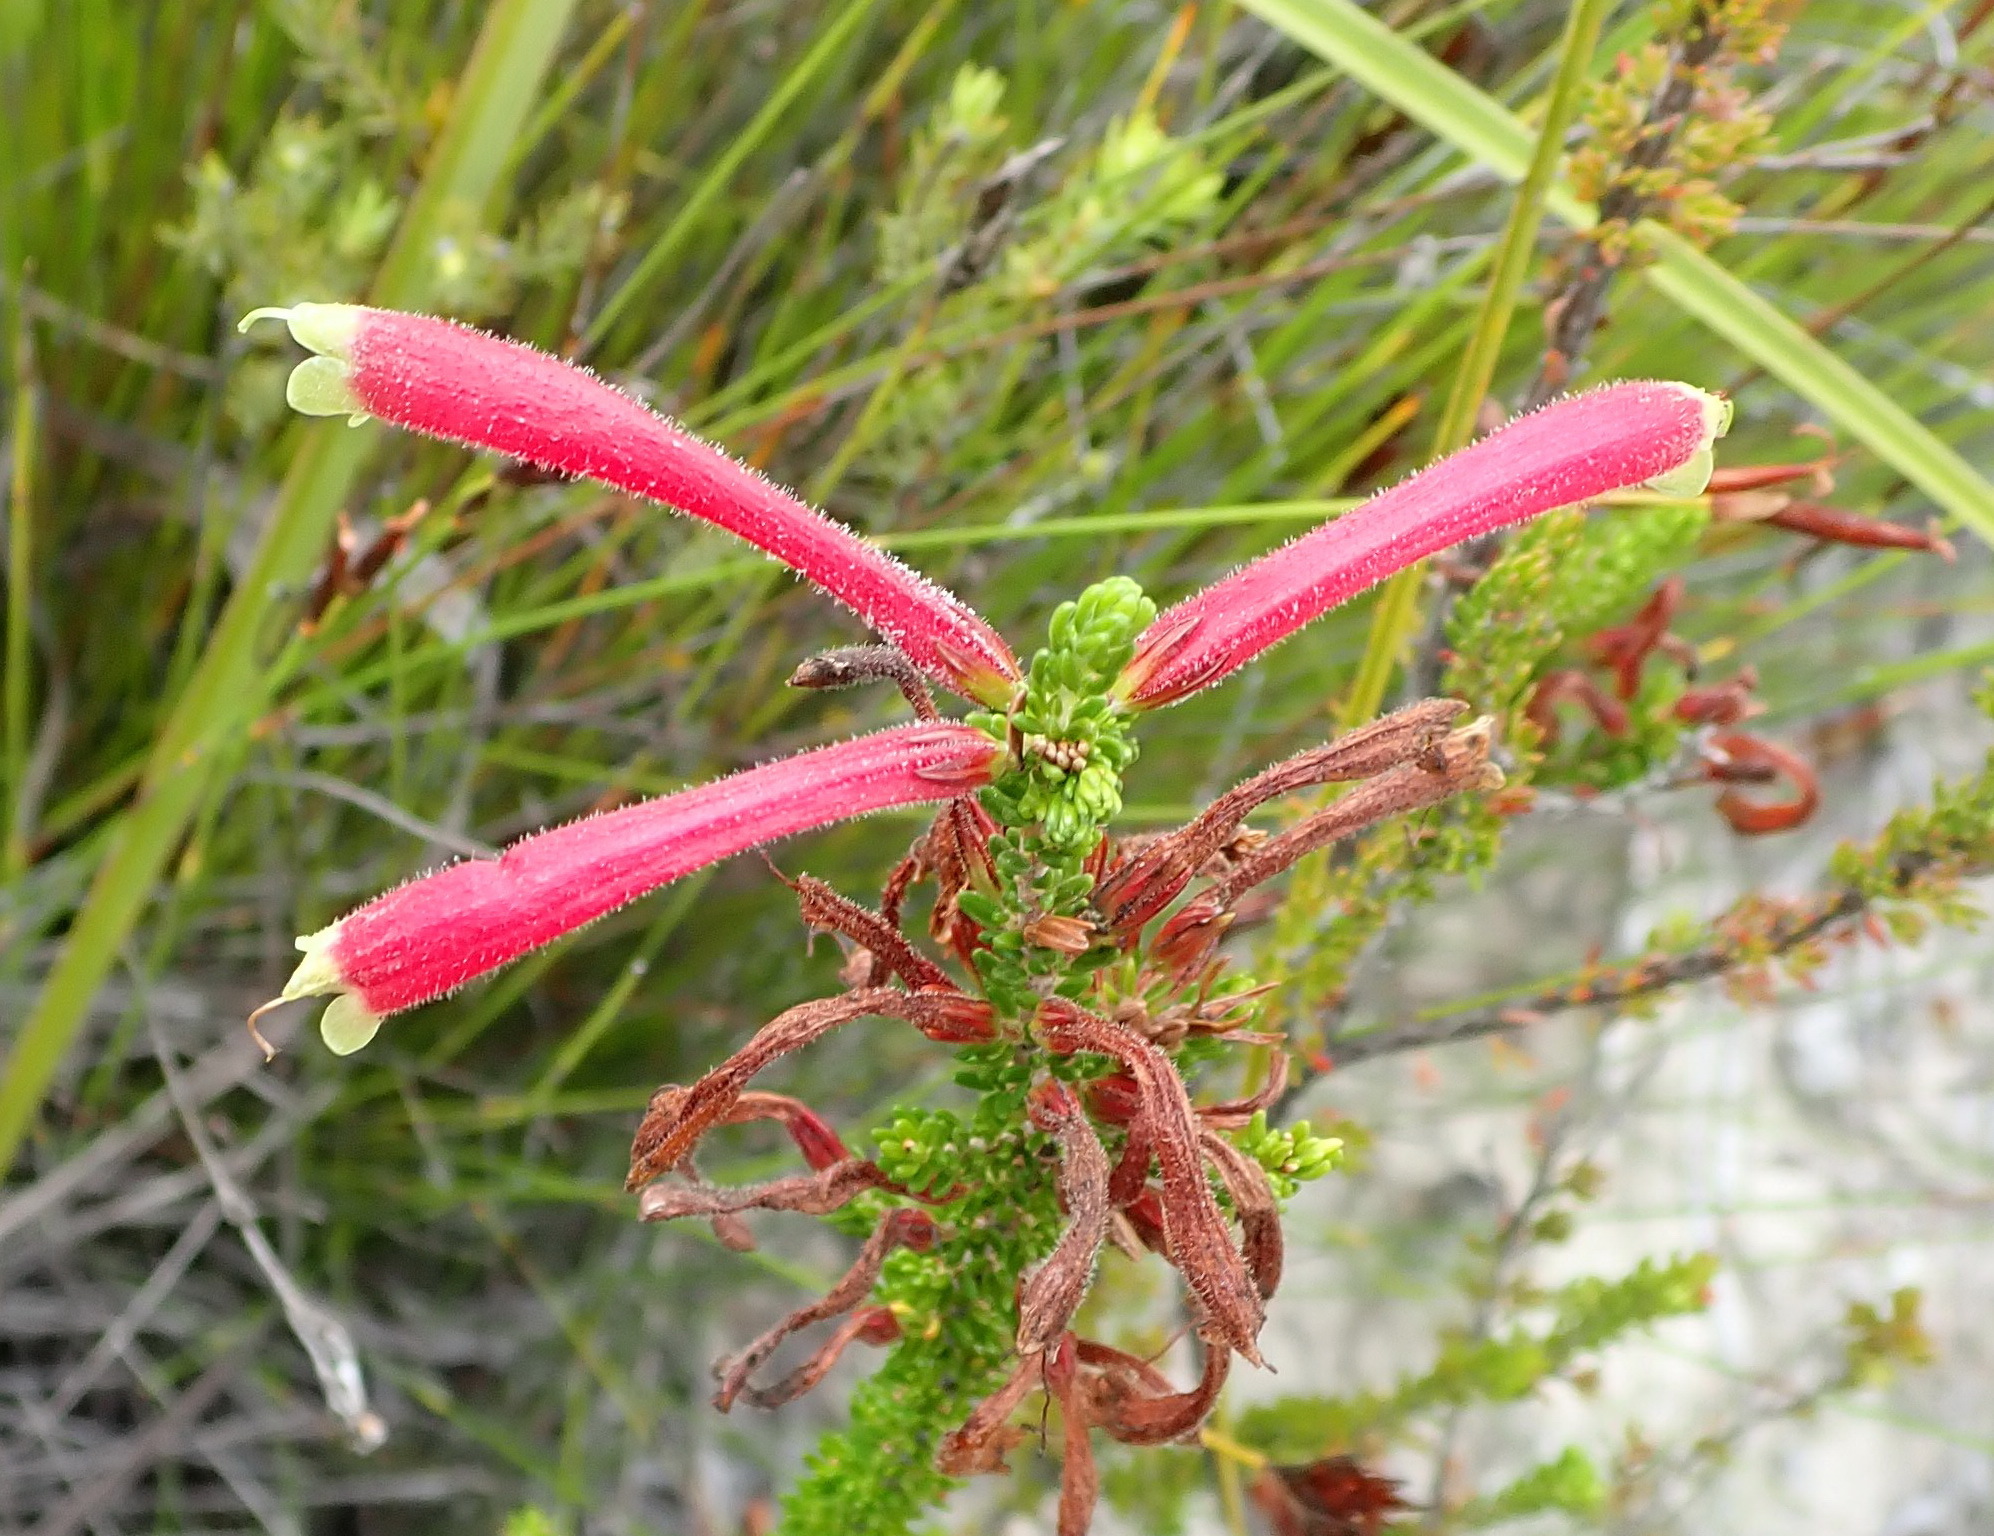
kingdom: Plantae
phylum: Tracheophyta
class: Magnoliopsida
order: Ericales
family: Ericaceae
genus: Erica
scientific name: Erica densifolia
